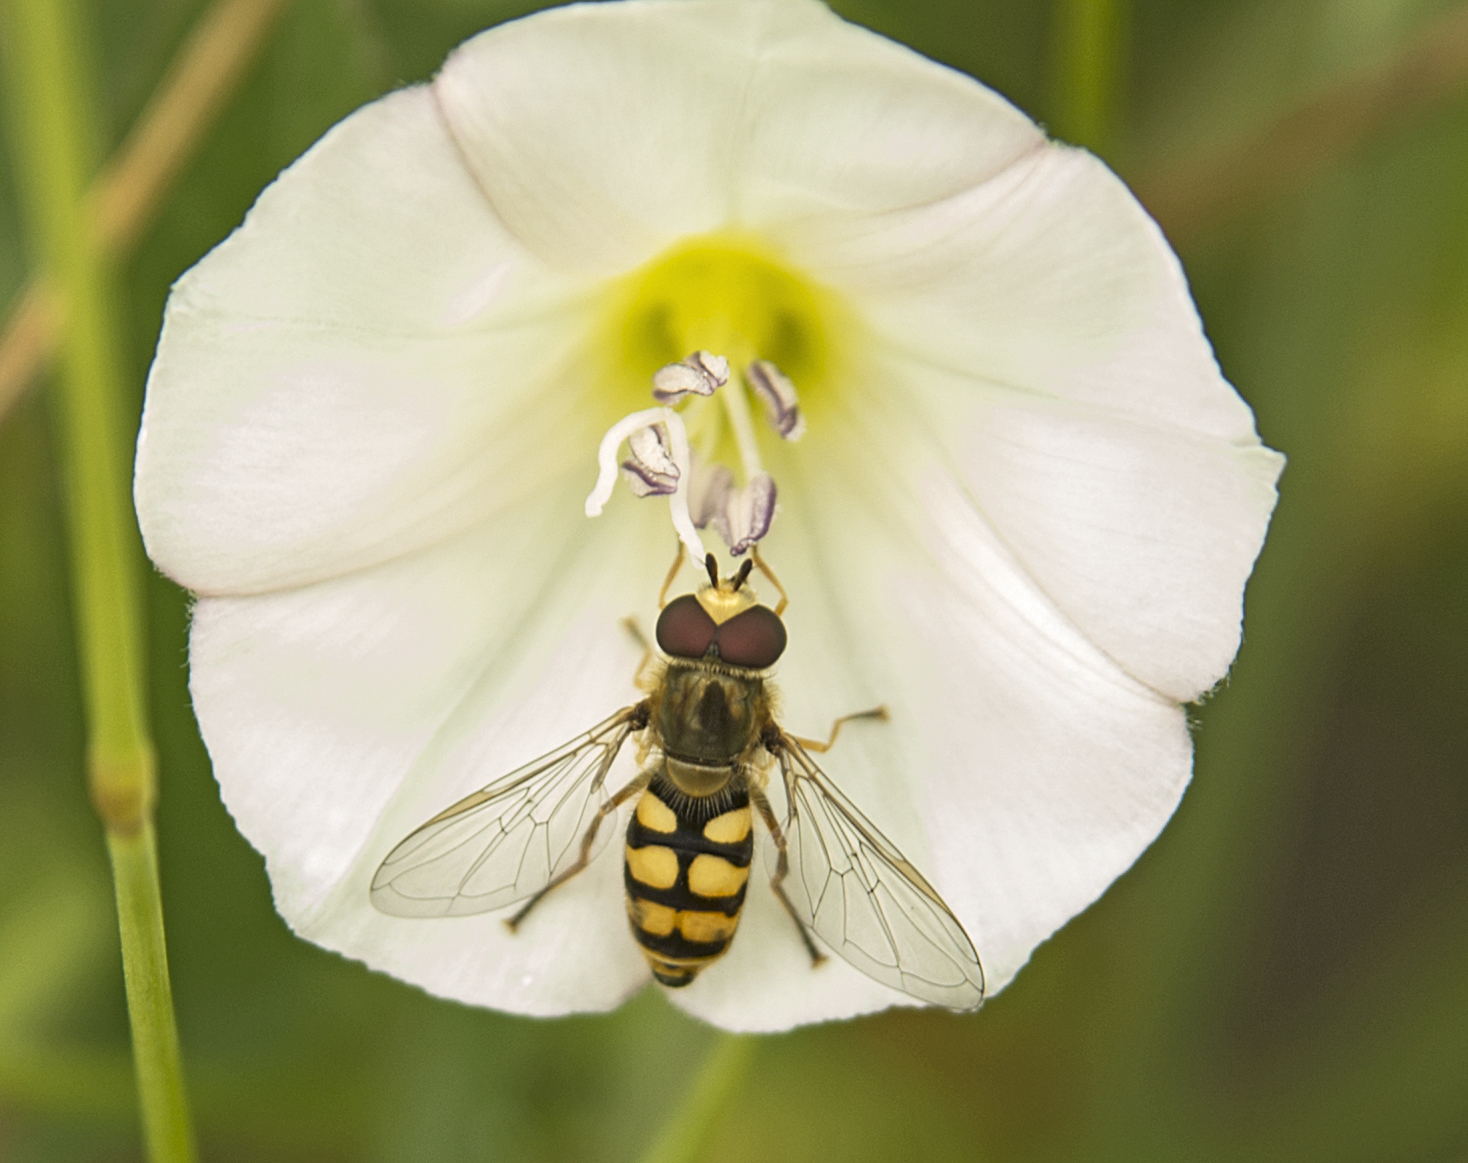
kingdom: Animalia
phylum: Arthropoda
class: Insecta
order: Diptera
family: Syrphidae
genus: Eupeodes
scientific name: Eupeodes corollae
